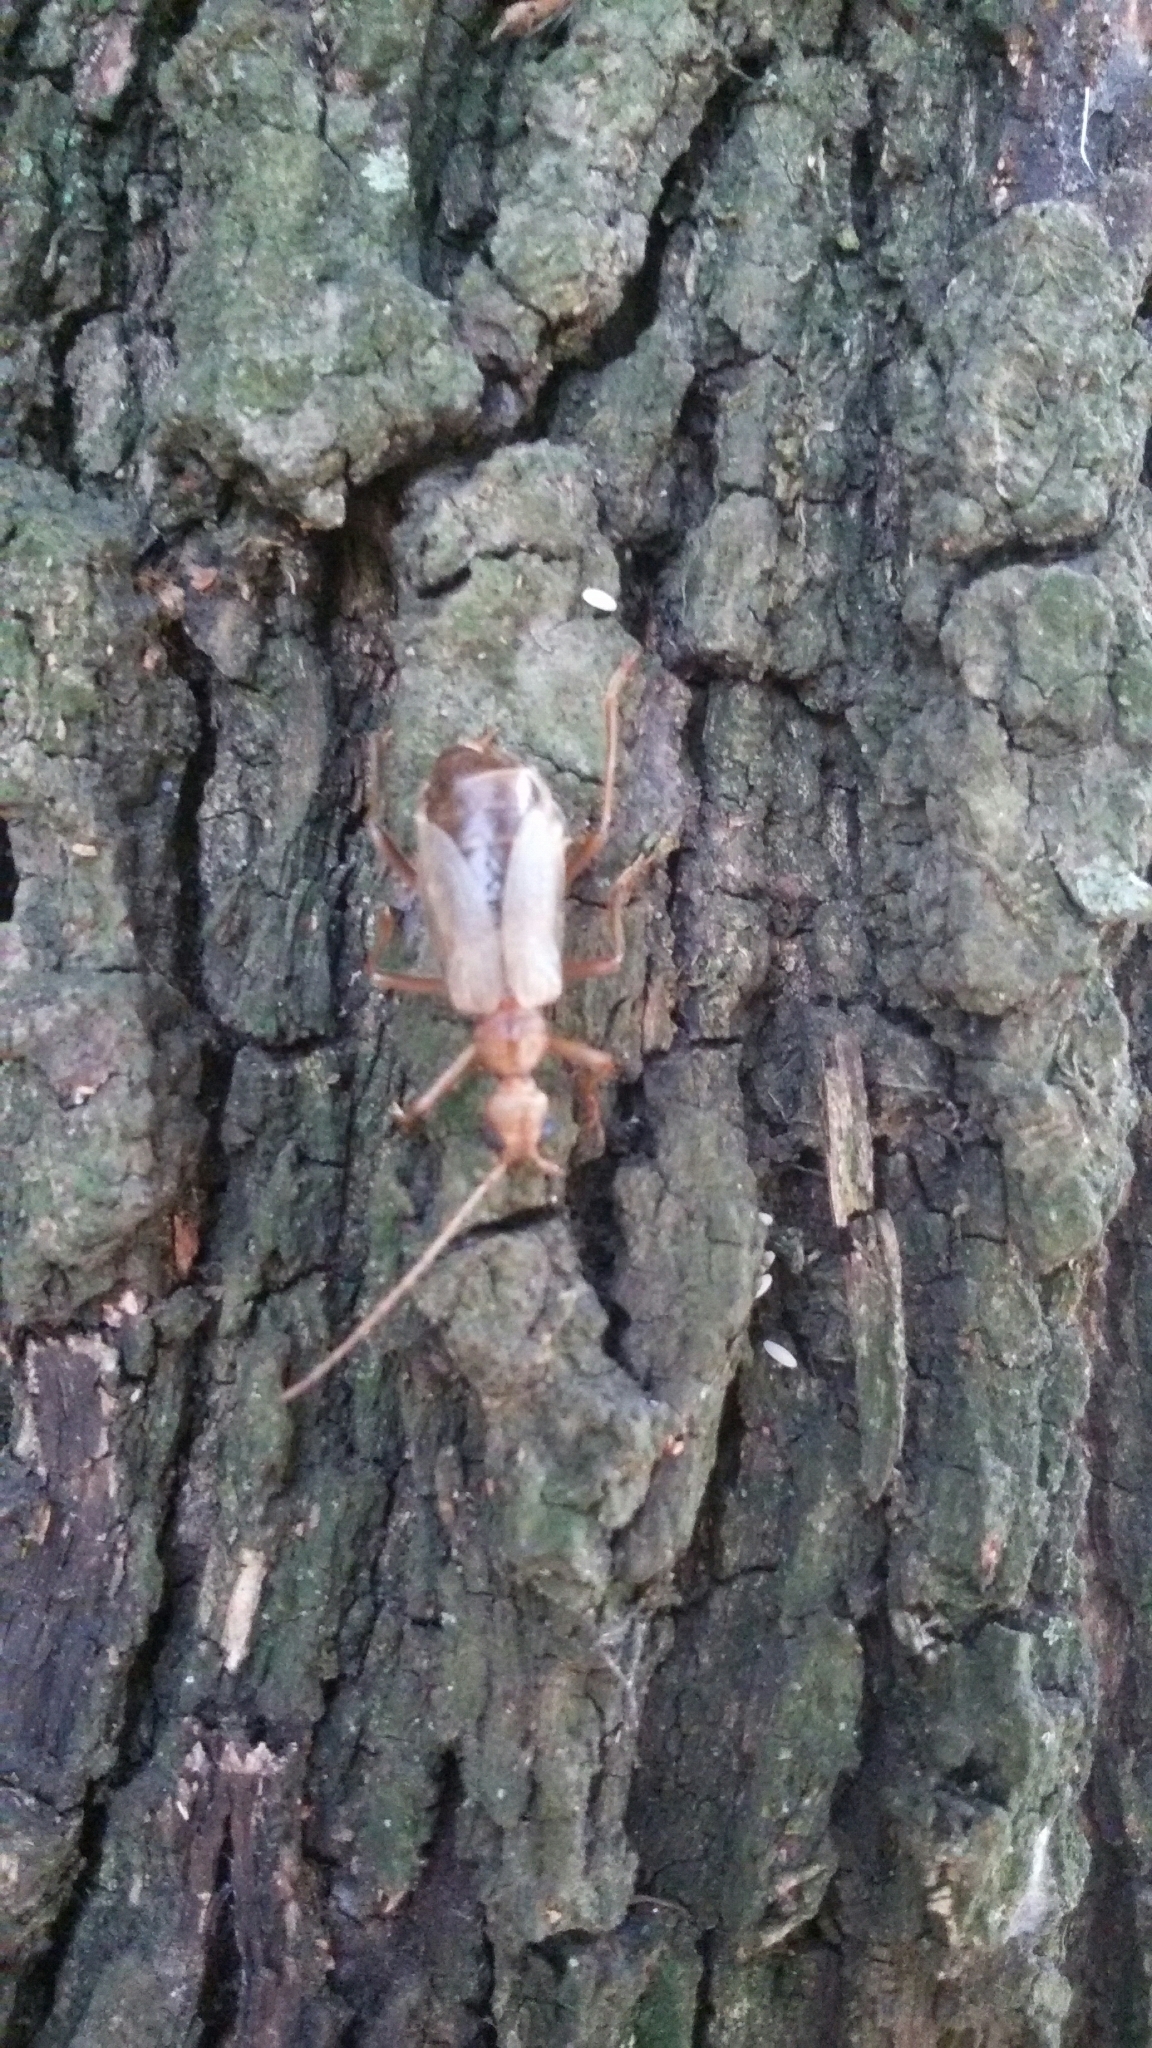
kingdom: Animalia
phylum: Arthropoda
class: Insecta
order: Coleoptera
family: Cerambycidae
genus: Vesperus
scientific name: Vesperus luridus
